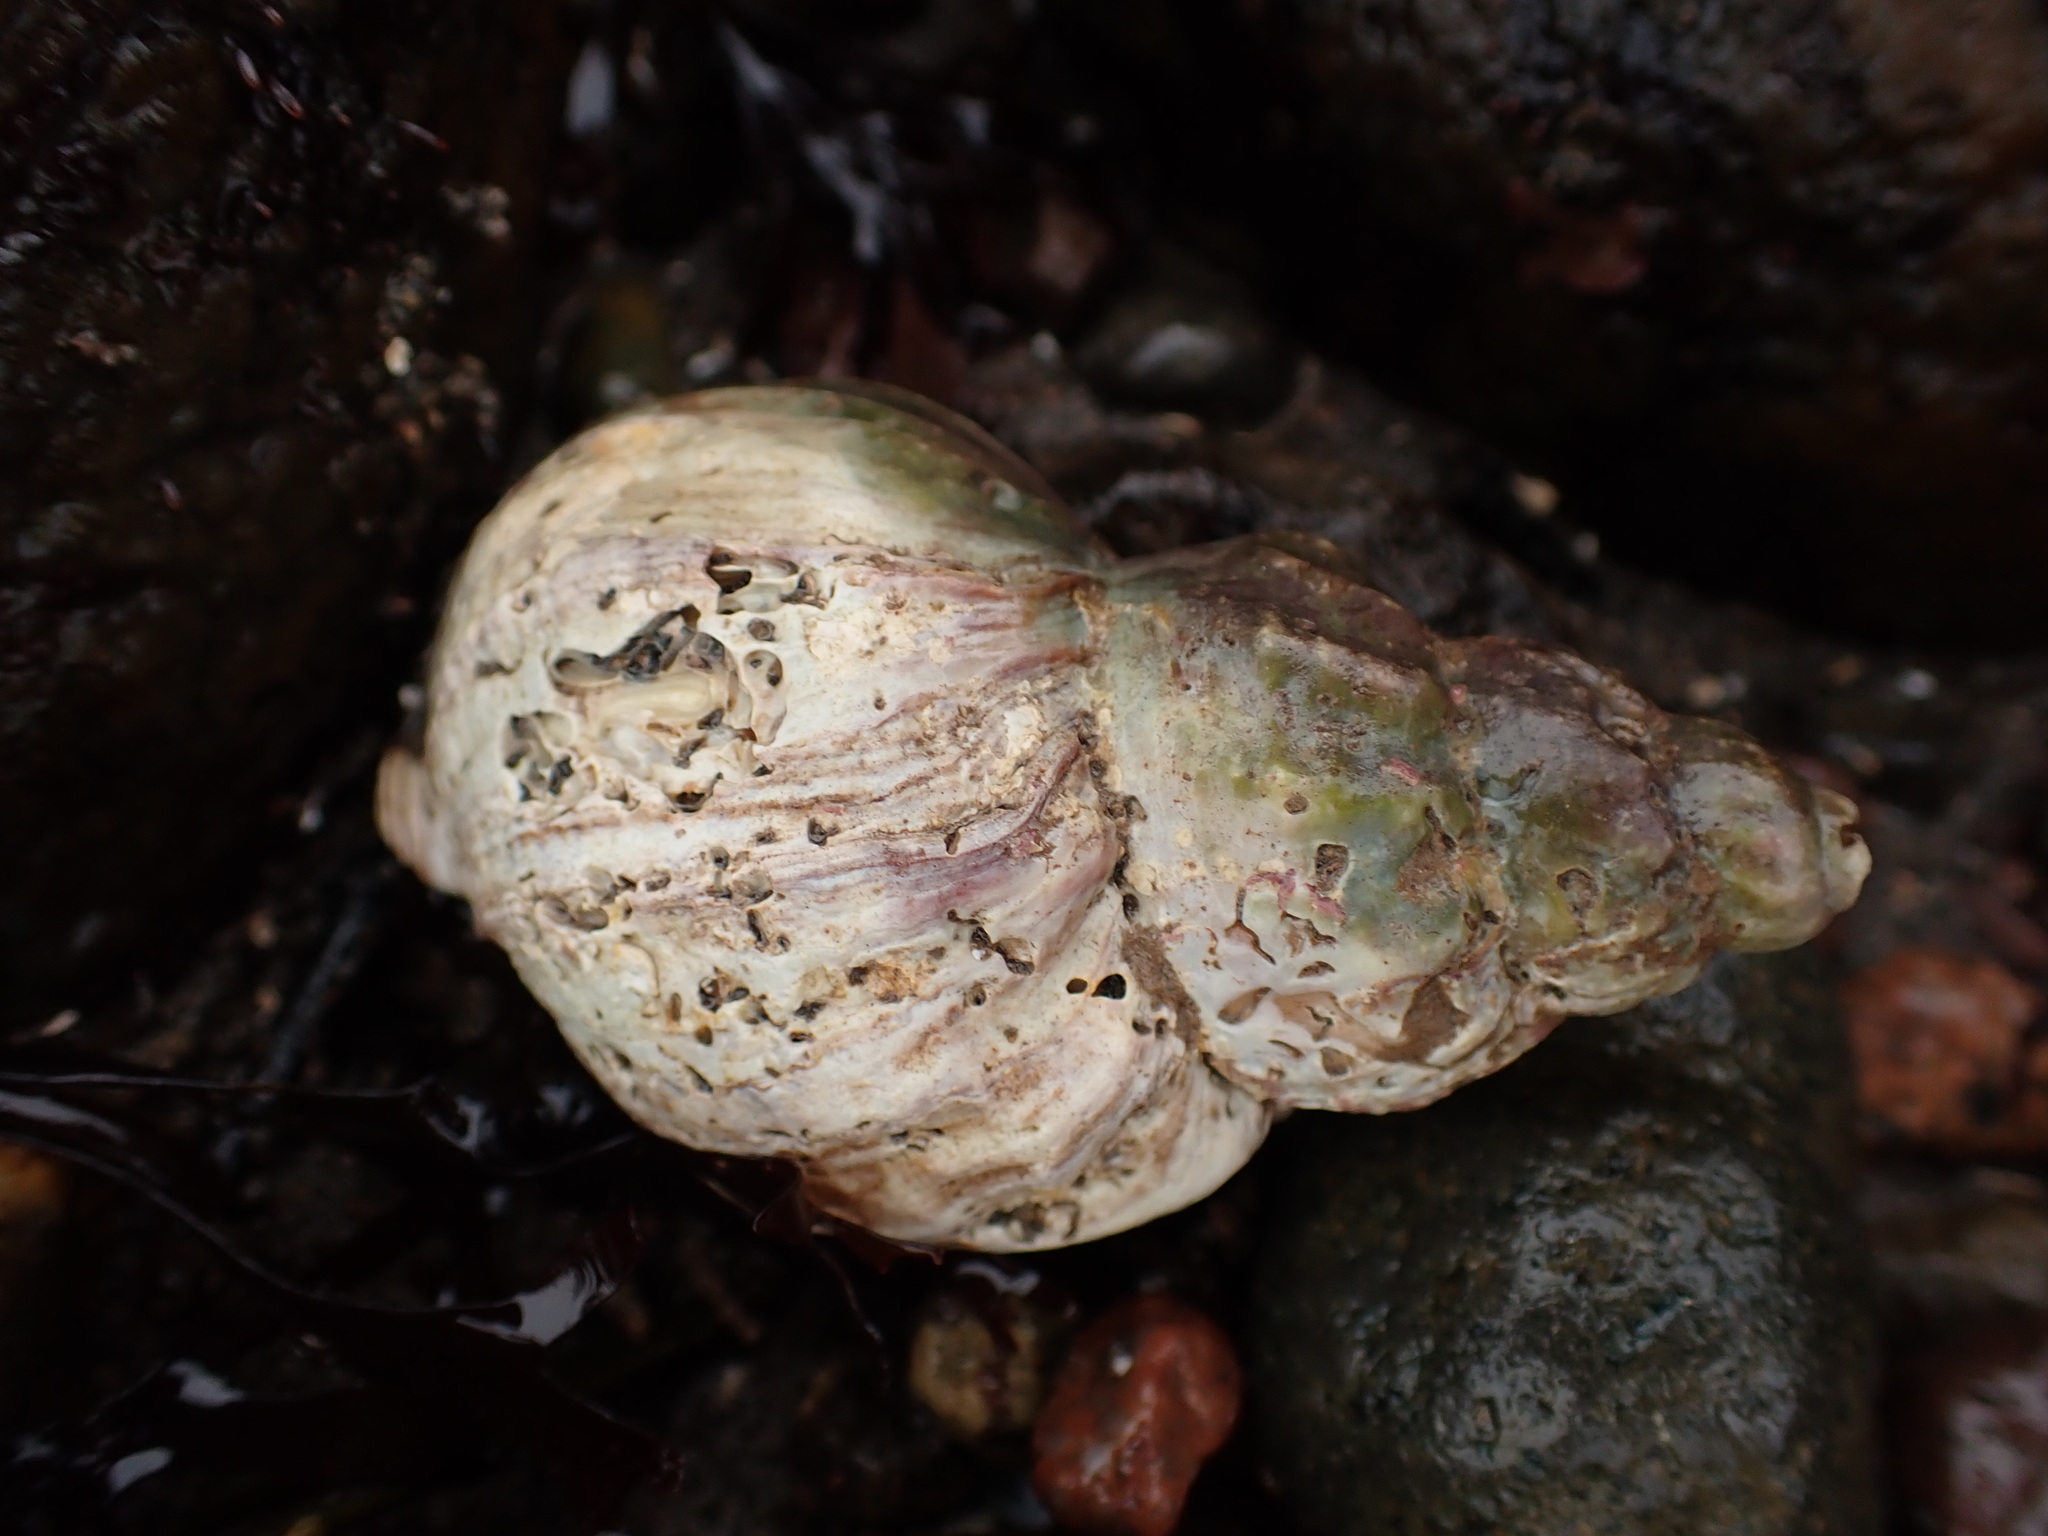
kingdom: Animalia
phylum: Mollusca
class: Gastropoda
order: Neogastropoda
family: Buccinidae
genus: Buccinum
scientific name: Buccinum undatum
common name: Common whelk
